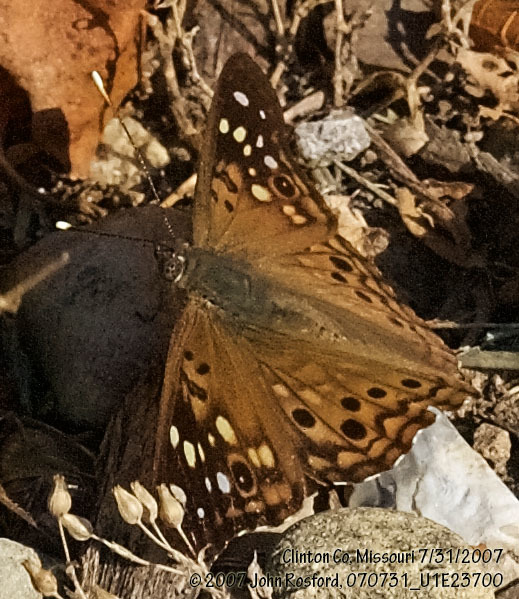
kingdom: Animalia
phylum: Arthropoda
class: Insecta
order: Lepidoptera
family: Nymphalidae
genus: Asterocampa
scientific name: Asterocampa celtis
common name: Hackberry emperor
